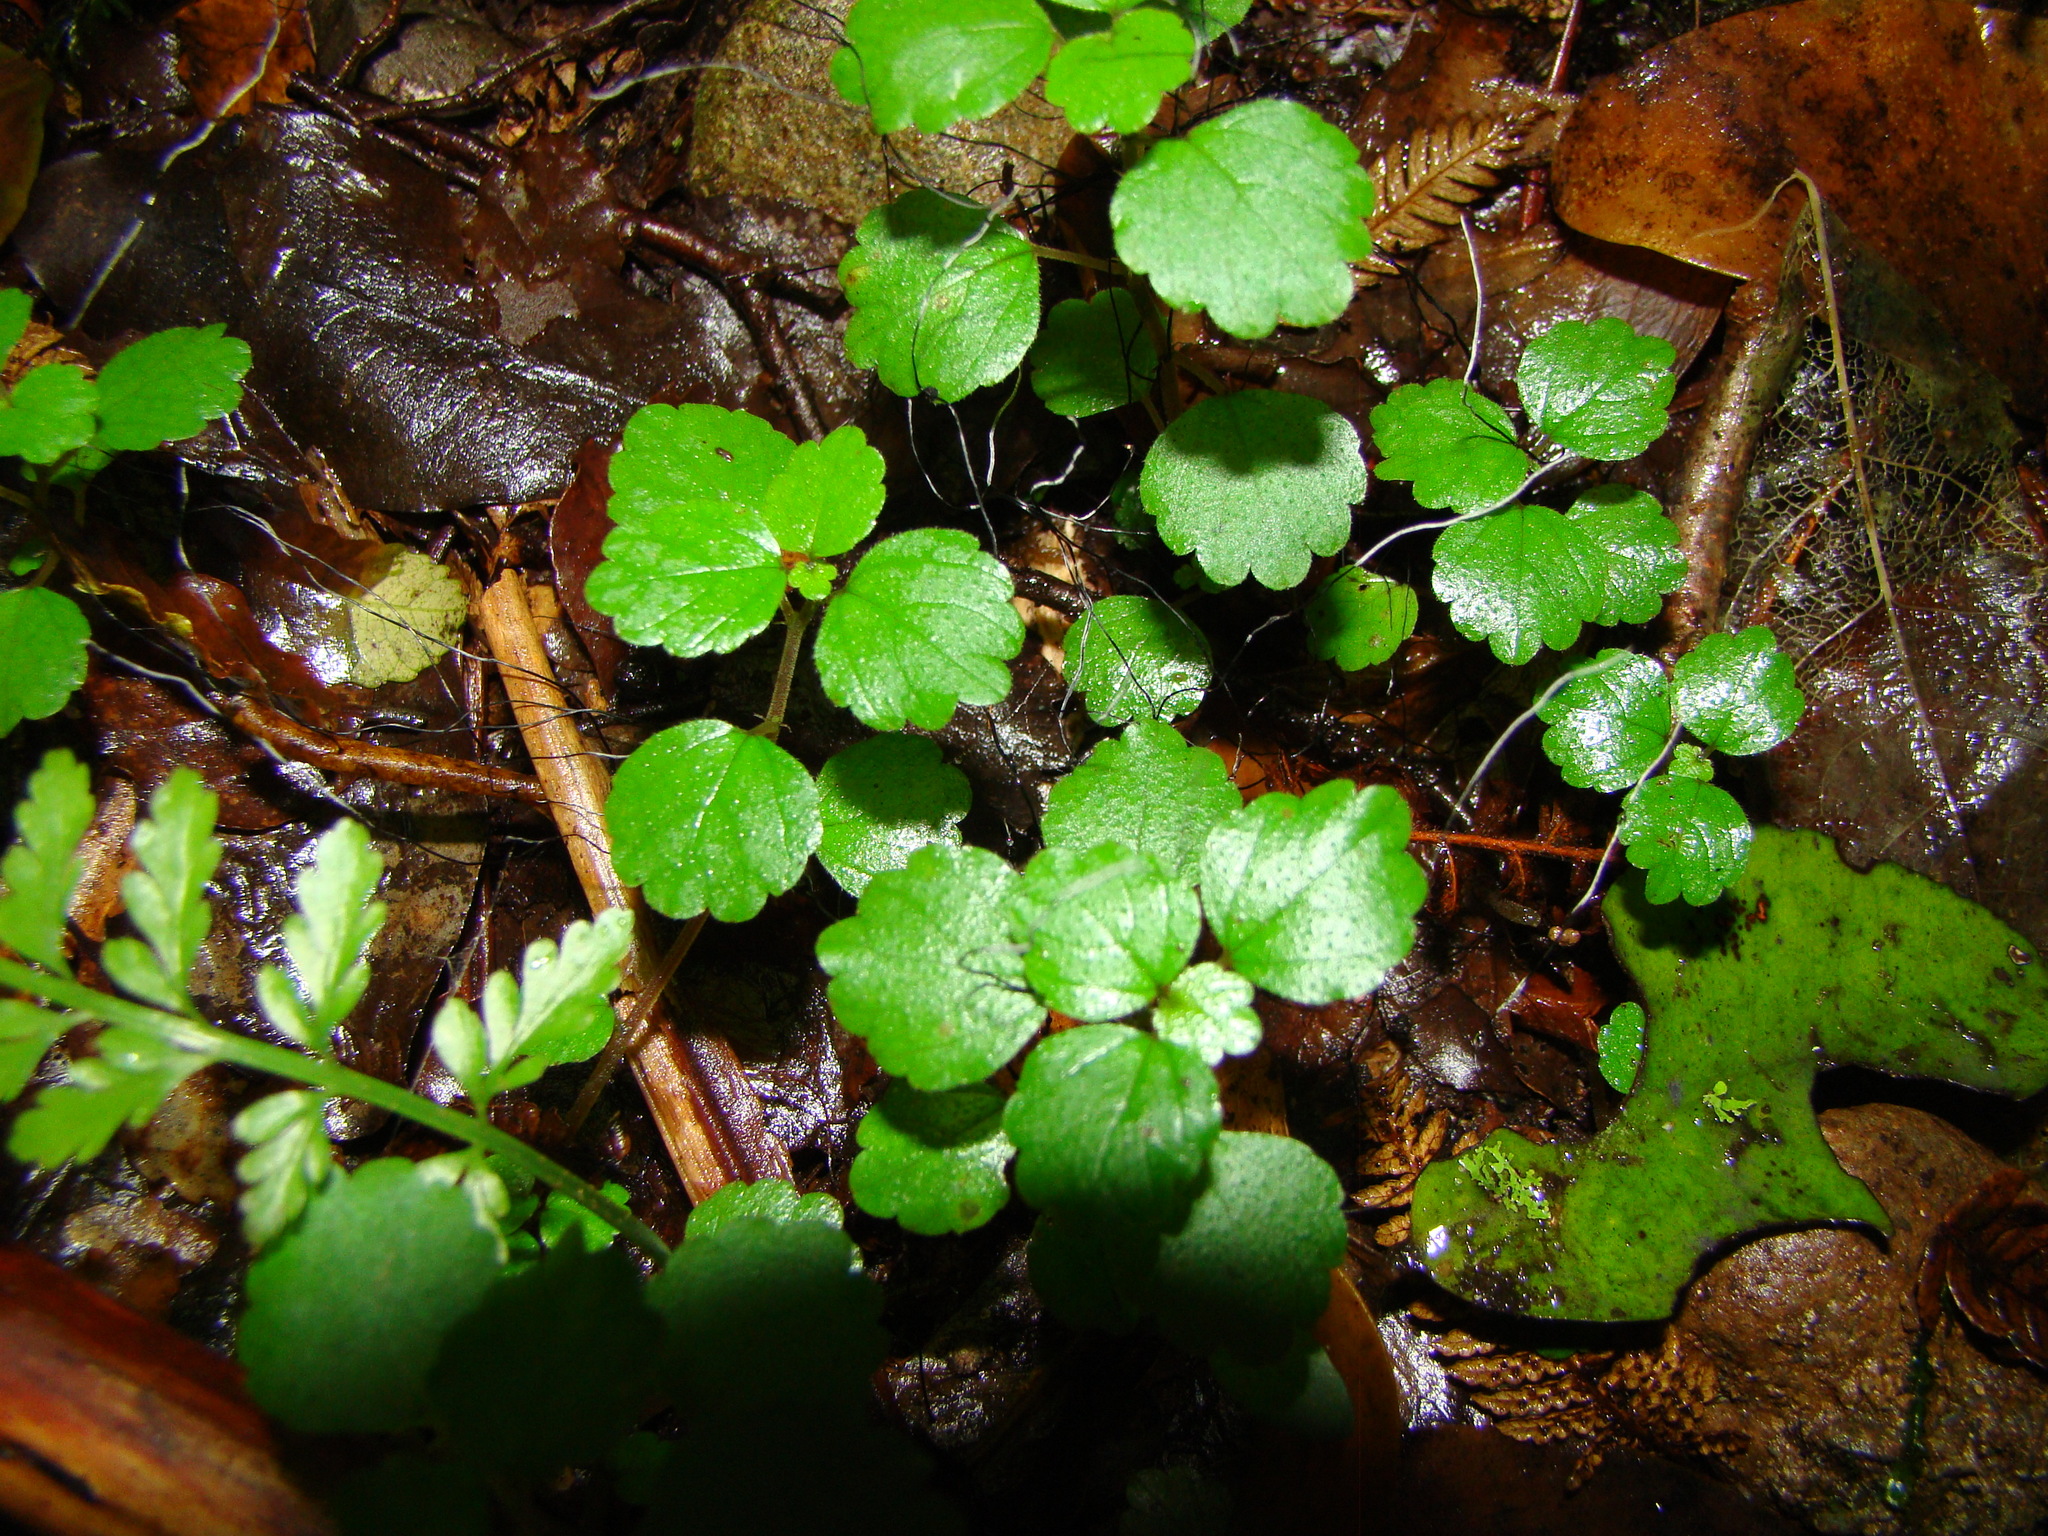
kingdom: Plantae
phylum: Tracheophyta
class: Magnoliopsida
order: Rosales
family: Urticaceae
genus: Australina
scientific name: Australina pusilla
